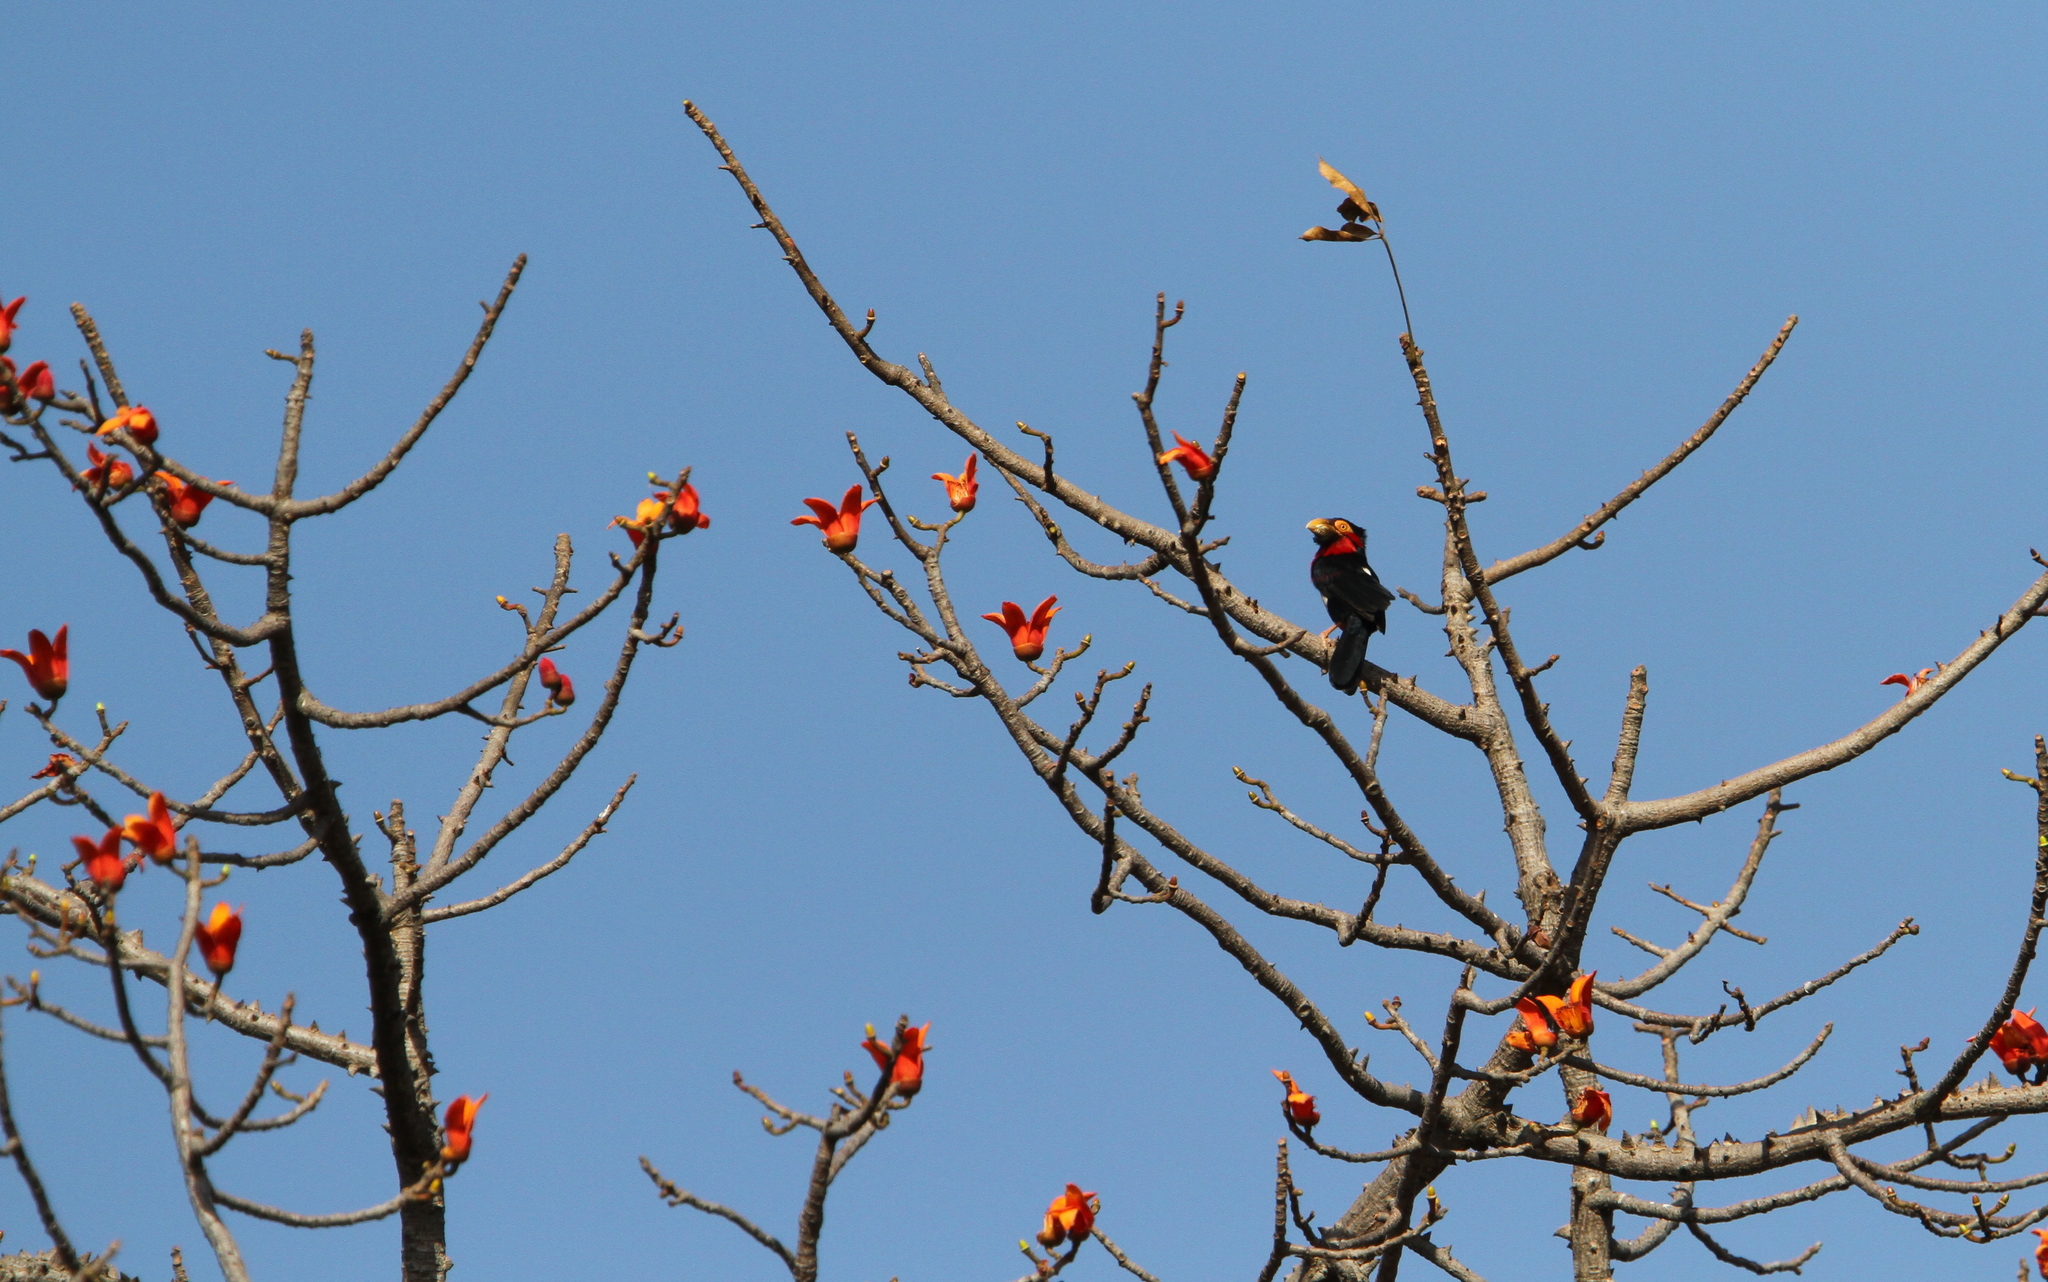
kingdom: Animalia
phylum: Chordata
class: Aves
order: Piciformes
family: Lybiidae
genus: Lybius
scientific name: Lybius dubius
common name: Bearded barbet
